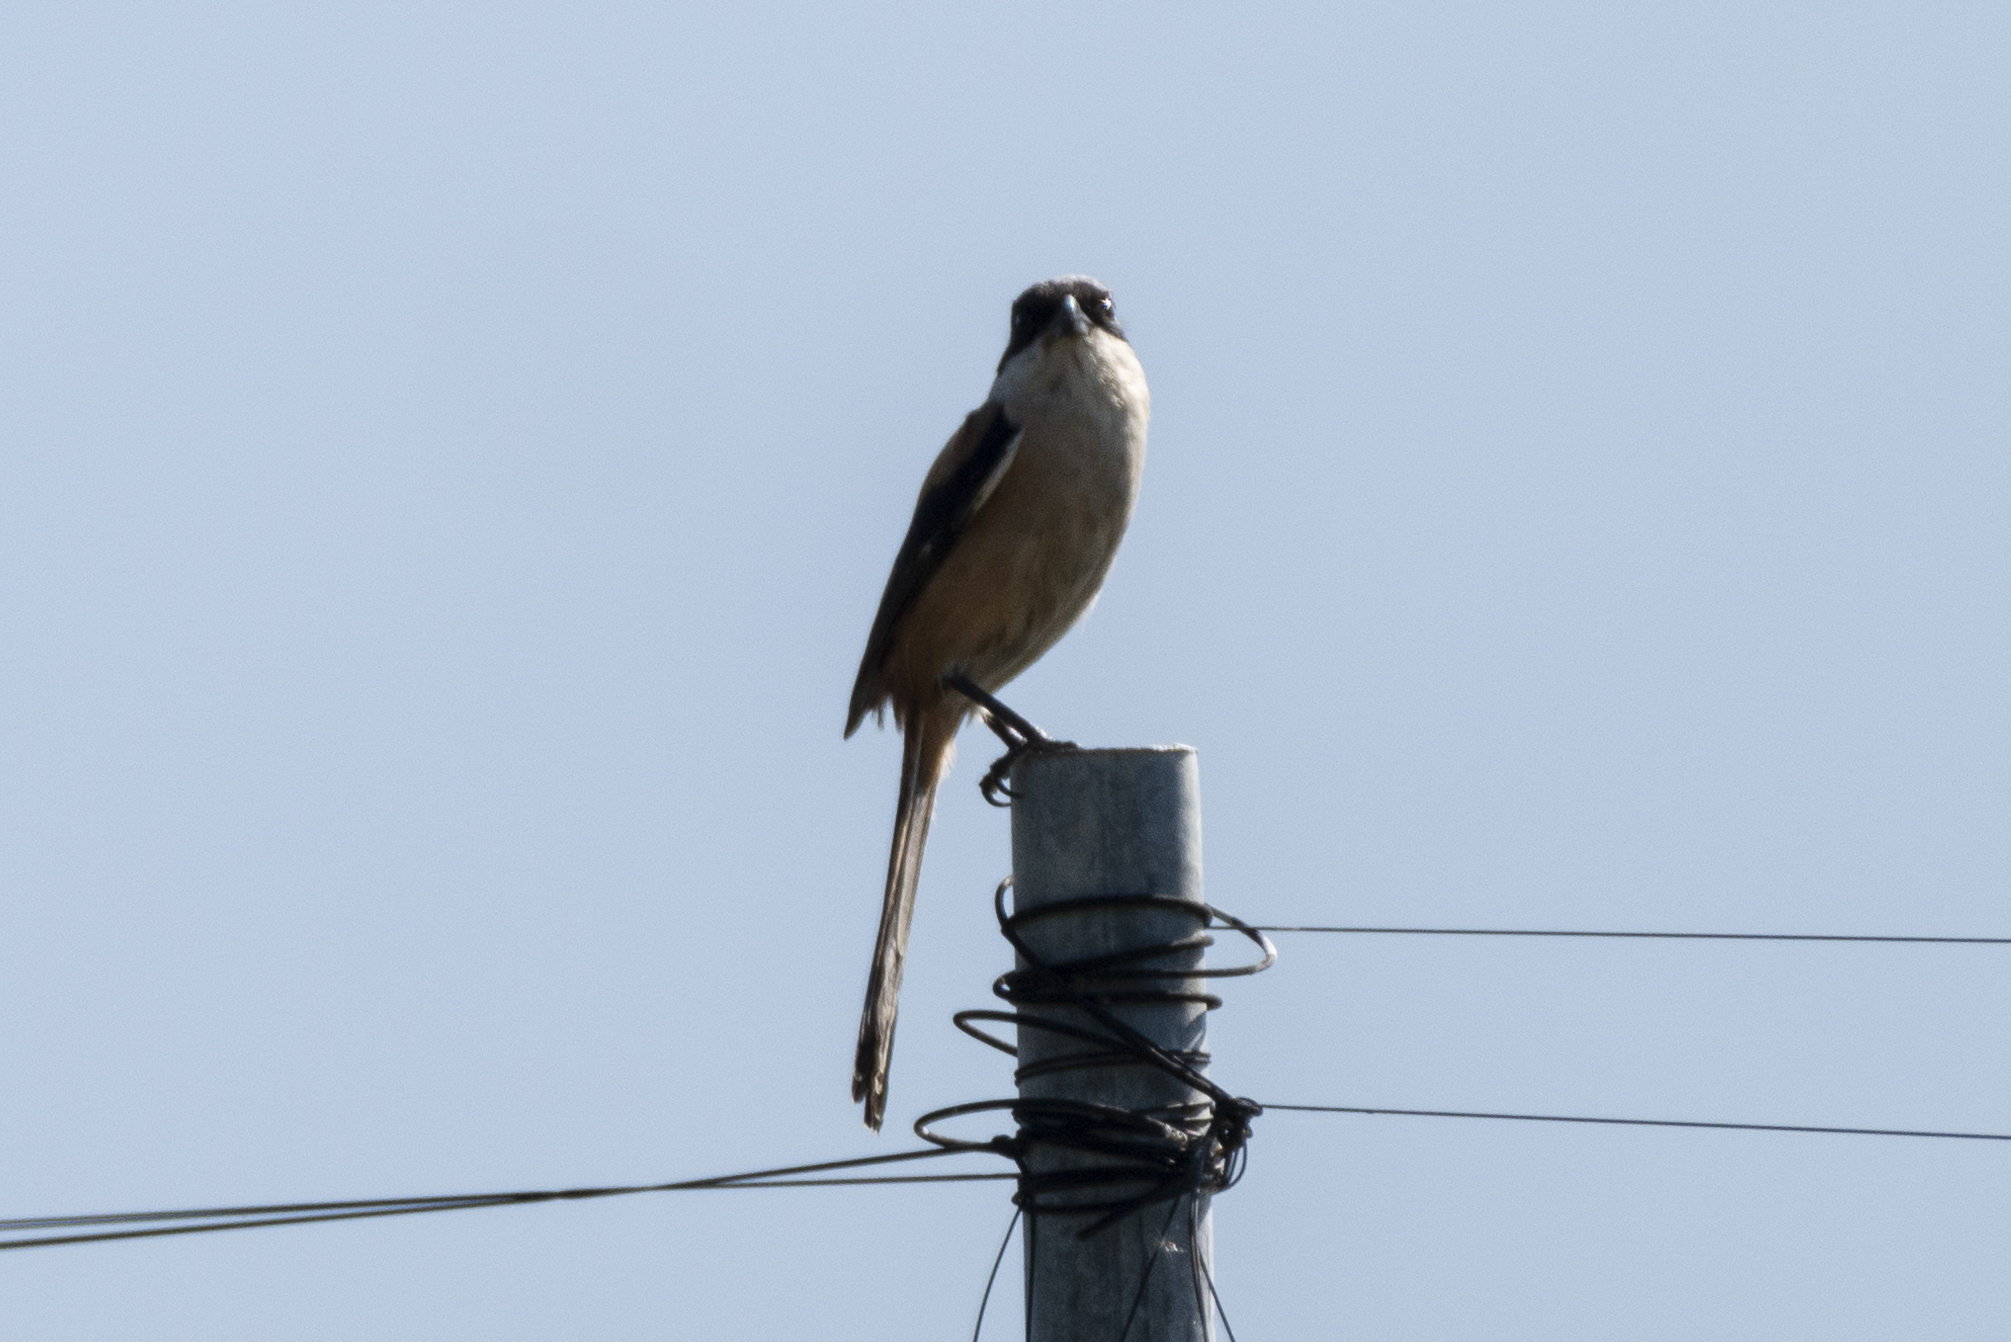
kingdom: Animalia
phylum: Chordata
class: Aves
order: Passeriformes
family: Laniidae
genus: Lanius
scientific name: Lanius schach
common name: Long-tailed shrike
